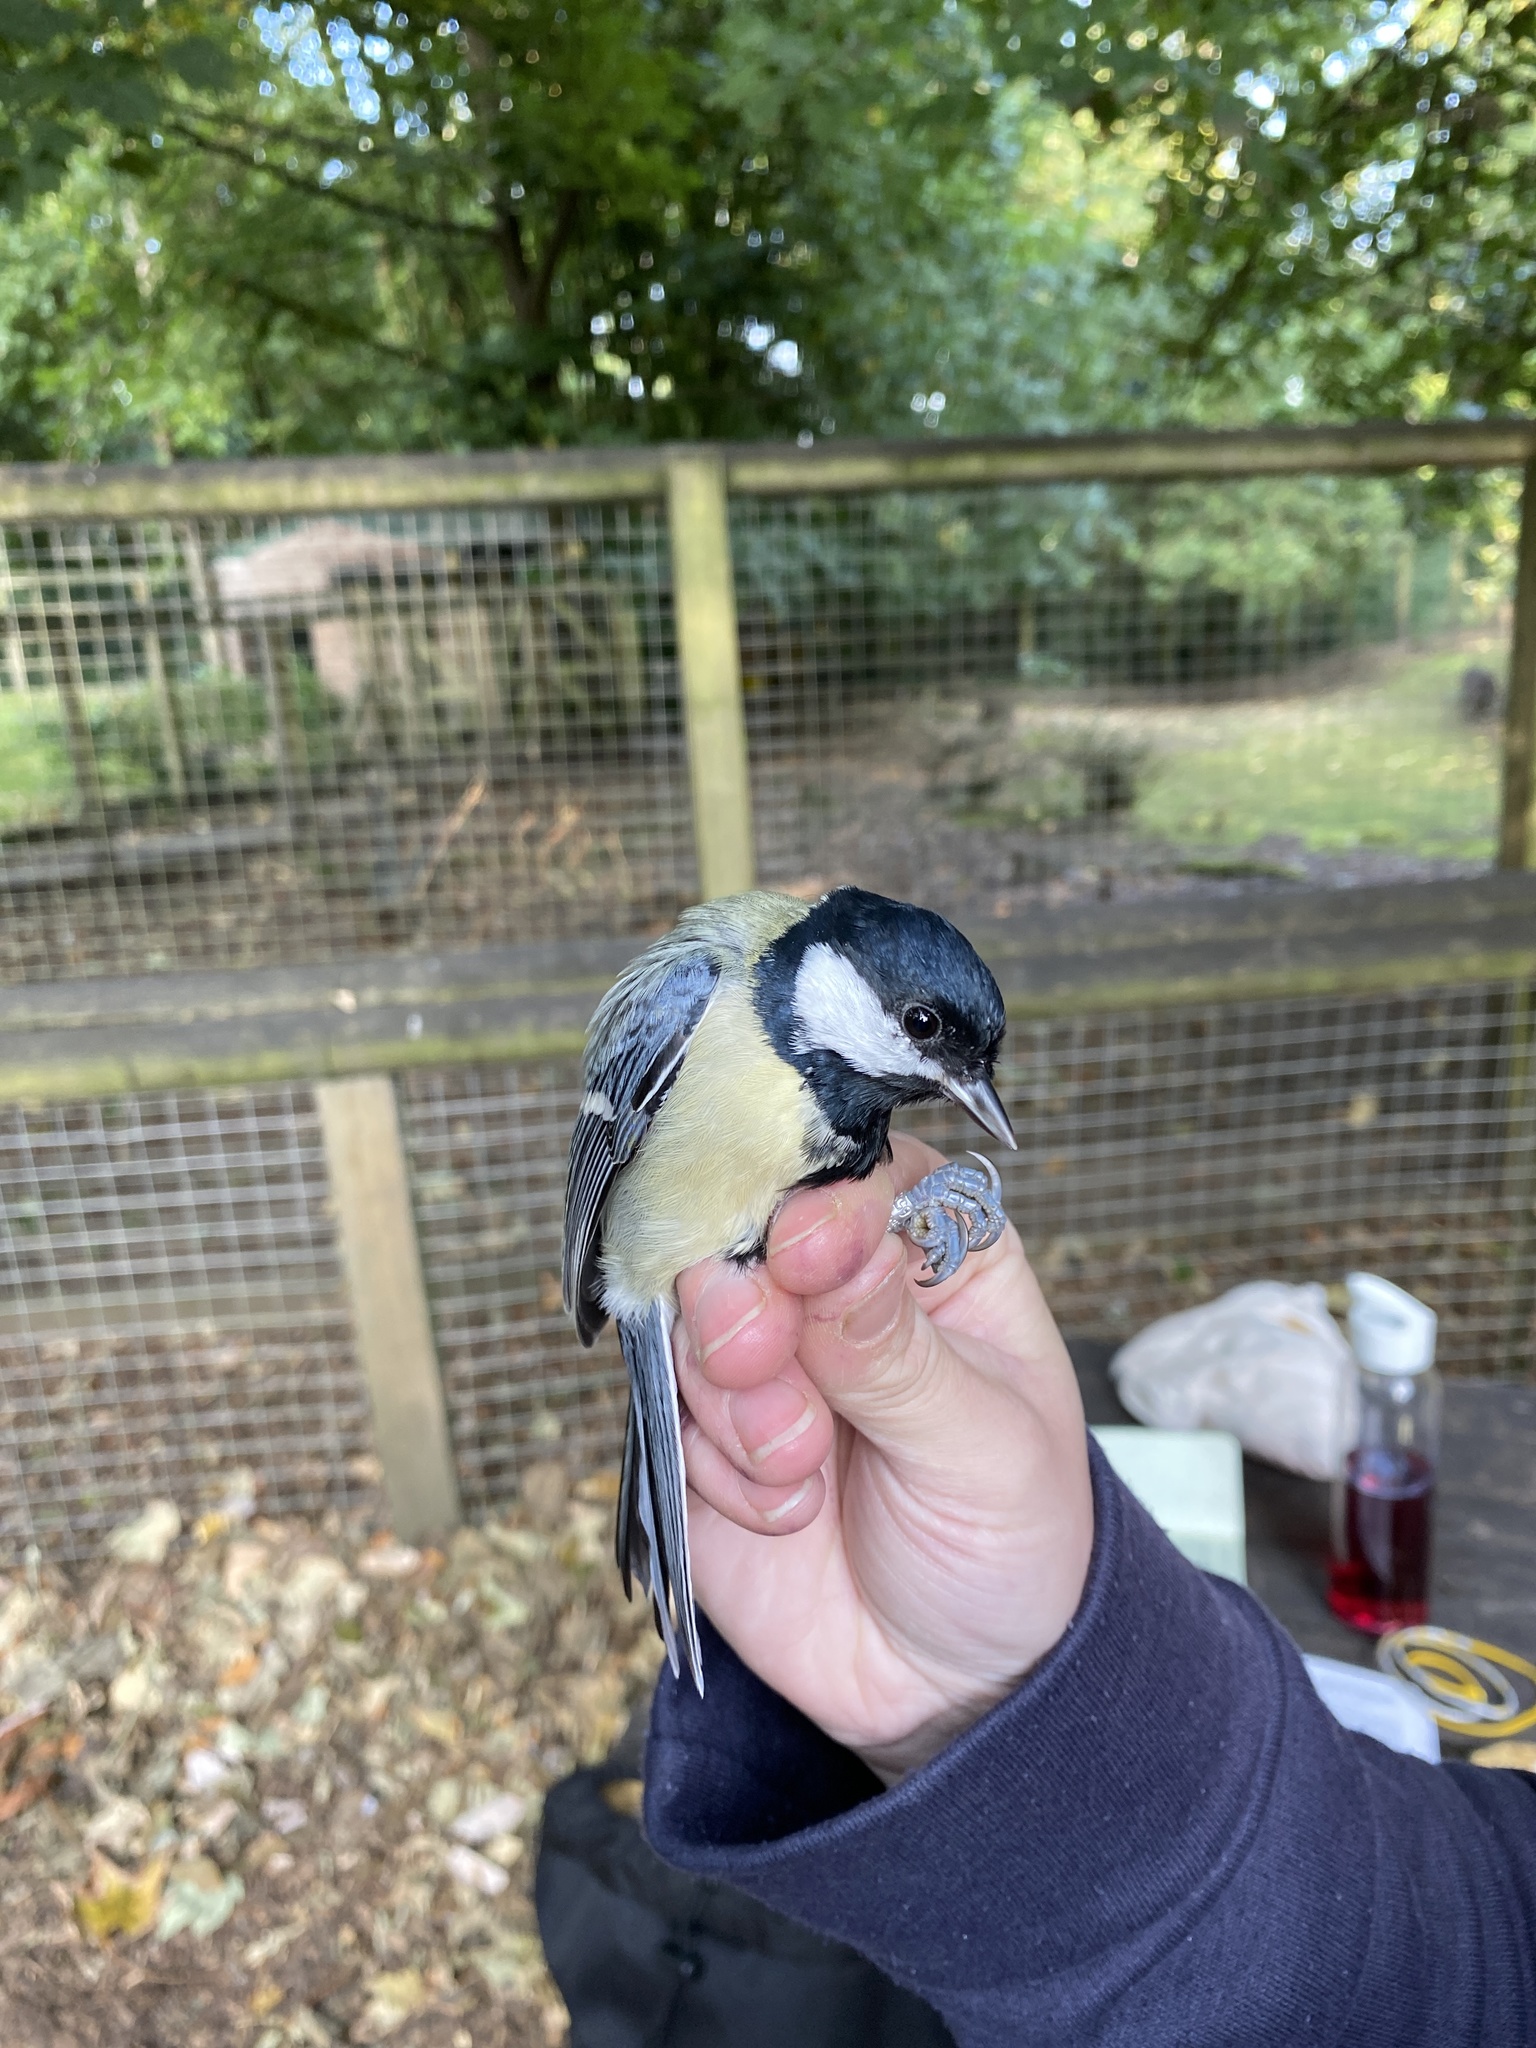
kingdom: Animalia
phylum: Chordata
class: Aves
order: Passeriformes
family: Paridae
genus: Parus
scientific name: Parus major
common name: Great tit
